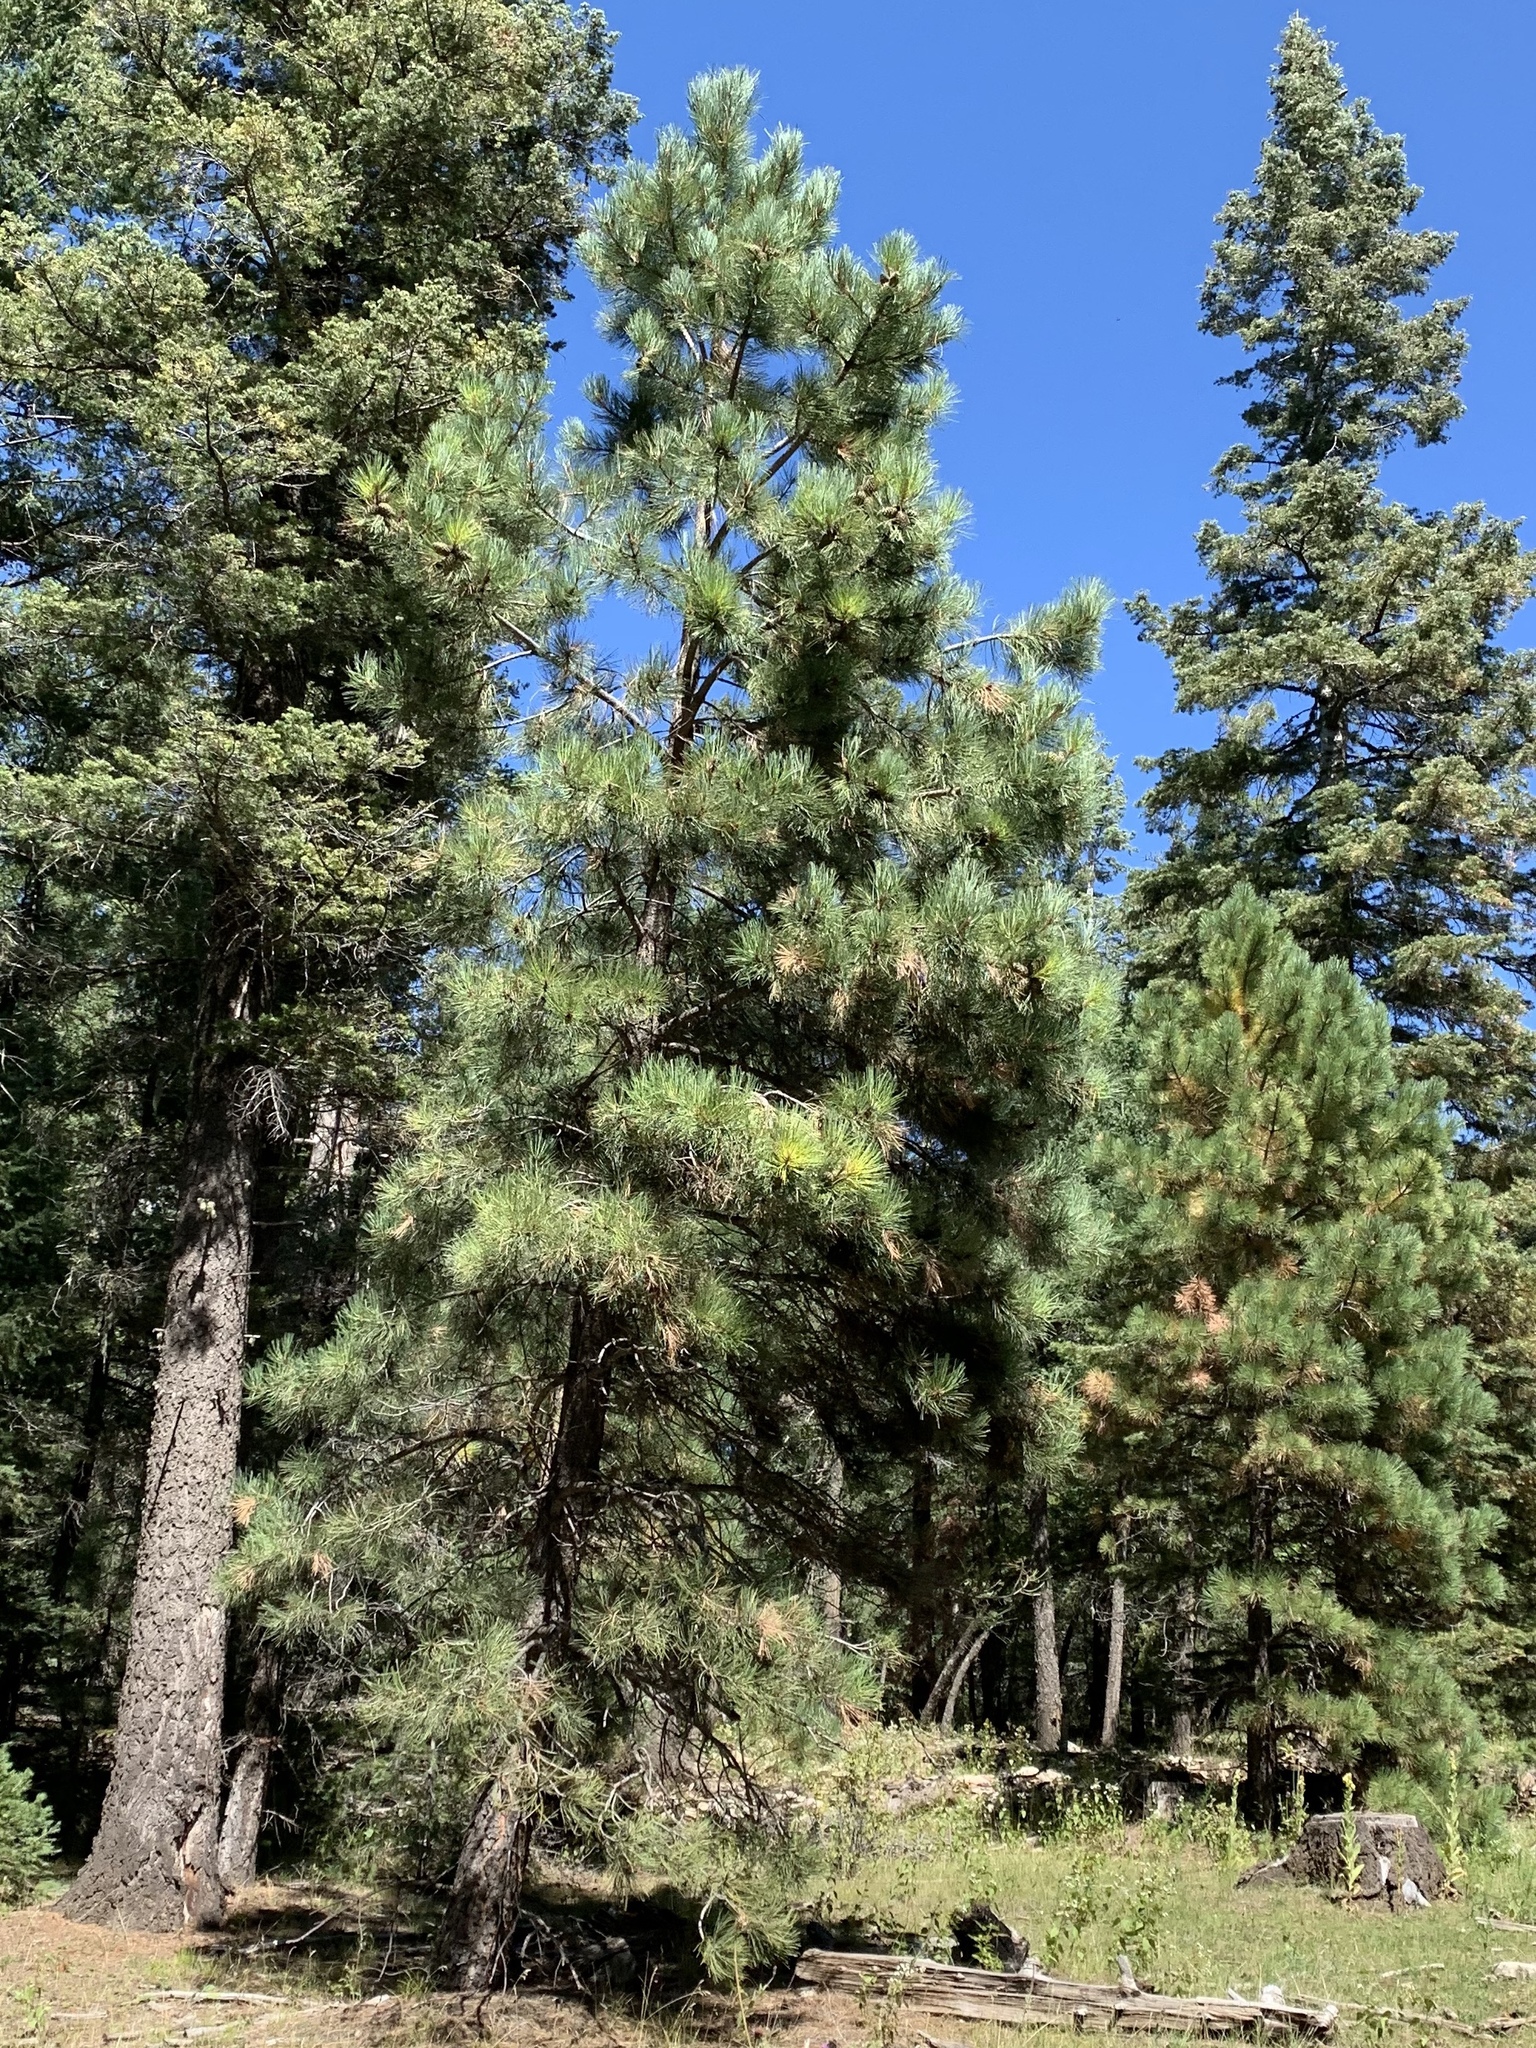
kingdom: Plantae
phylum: Tracheophyta
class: Pinopsida
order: Pinales
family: Pinaceae
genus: Pinus
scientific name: Pinus ponderosa
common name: Western yellow-pine
